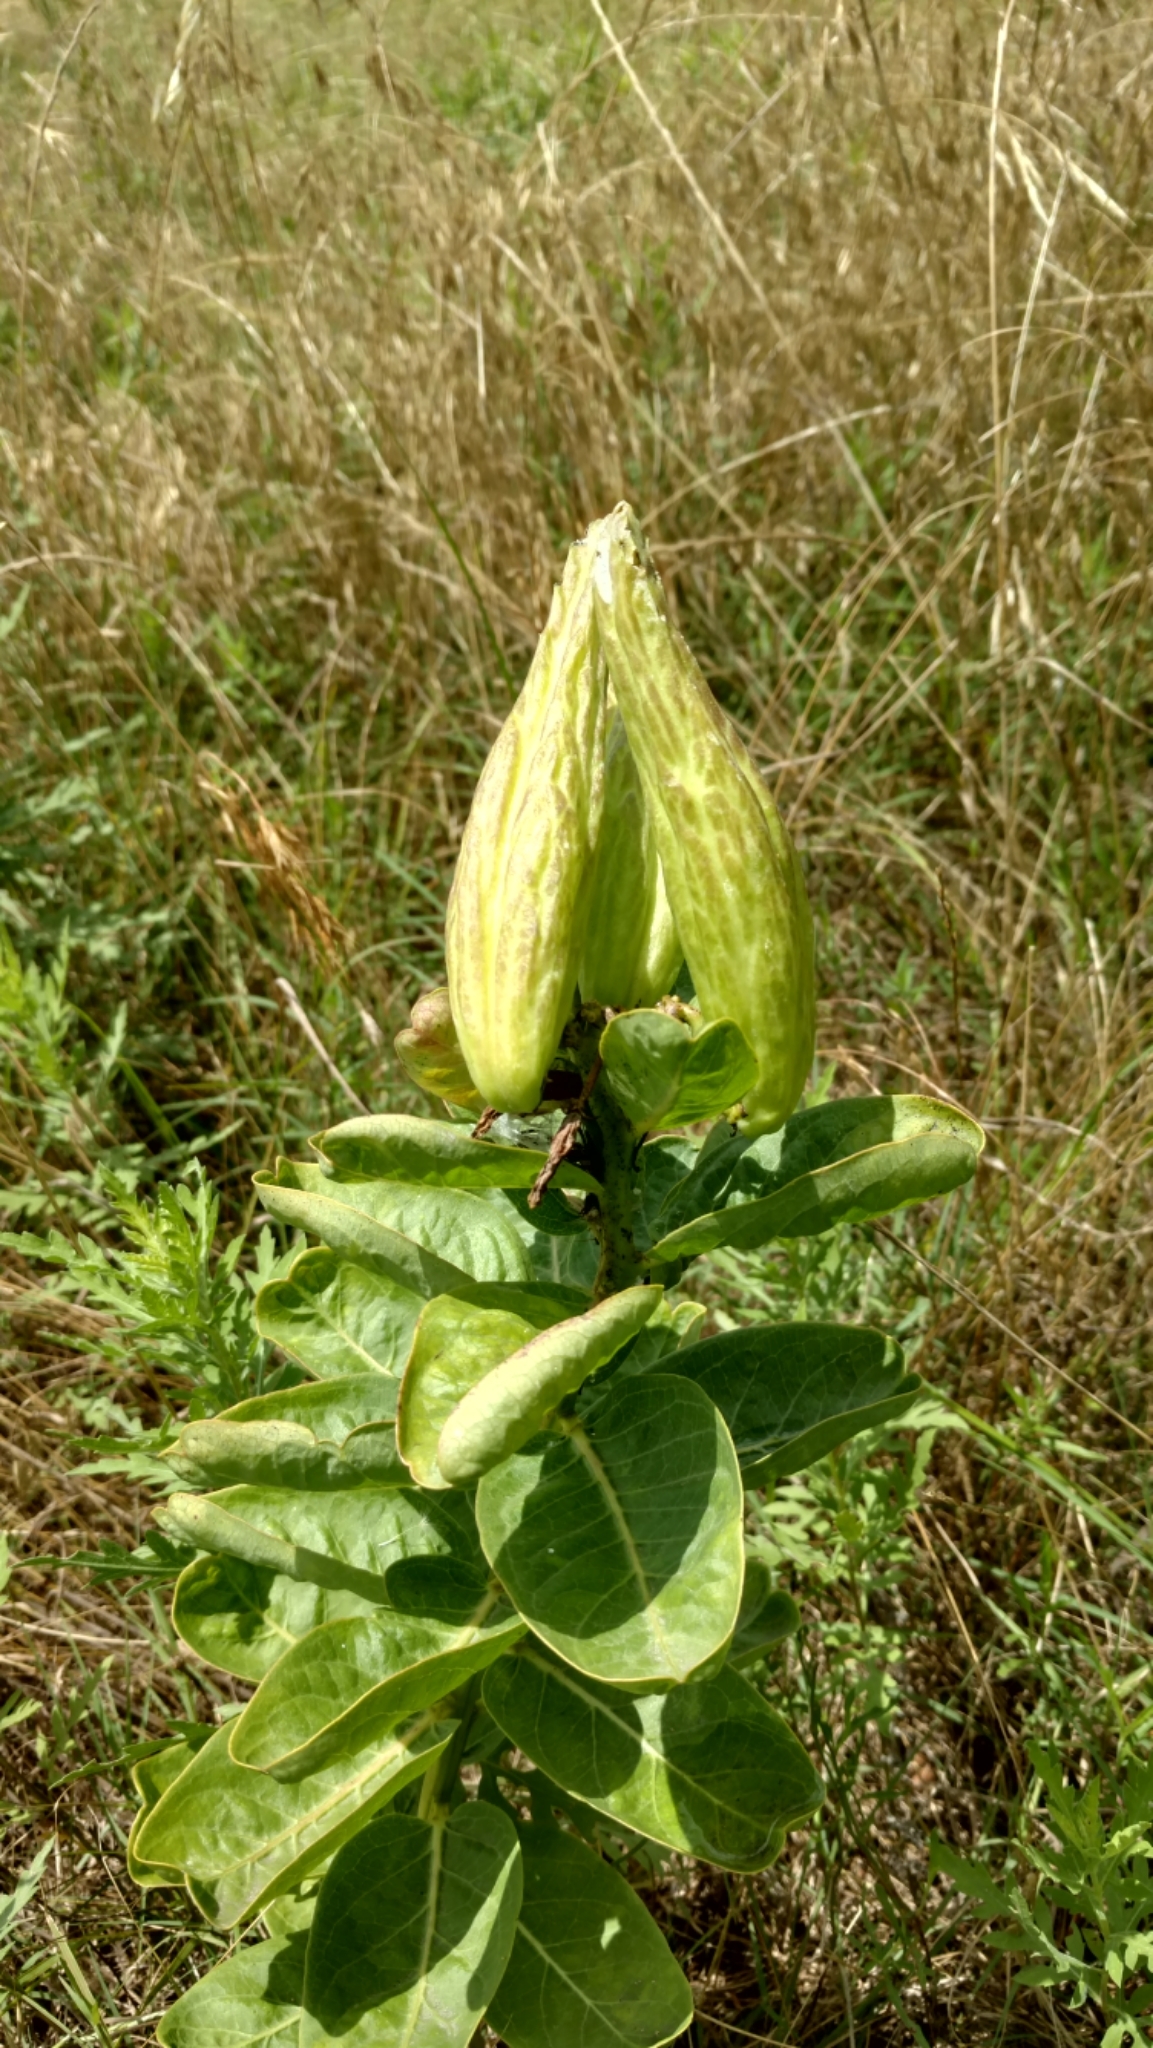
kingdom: Plantae
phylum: Tracheophyta
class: Magnoliopsida
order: Gentianales
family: Apocynaceae
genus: Asclepias
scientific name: Asclepias viridis
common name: Antelope-horns
